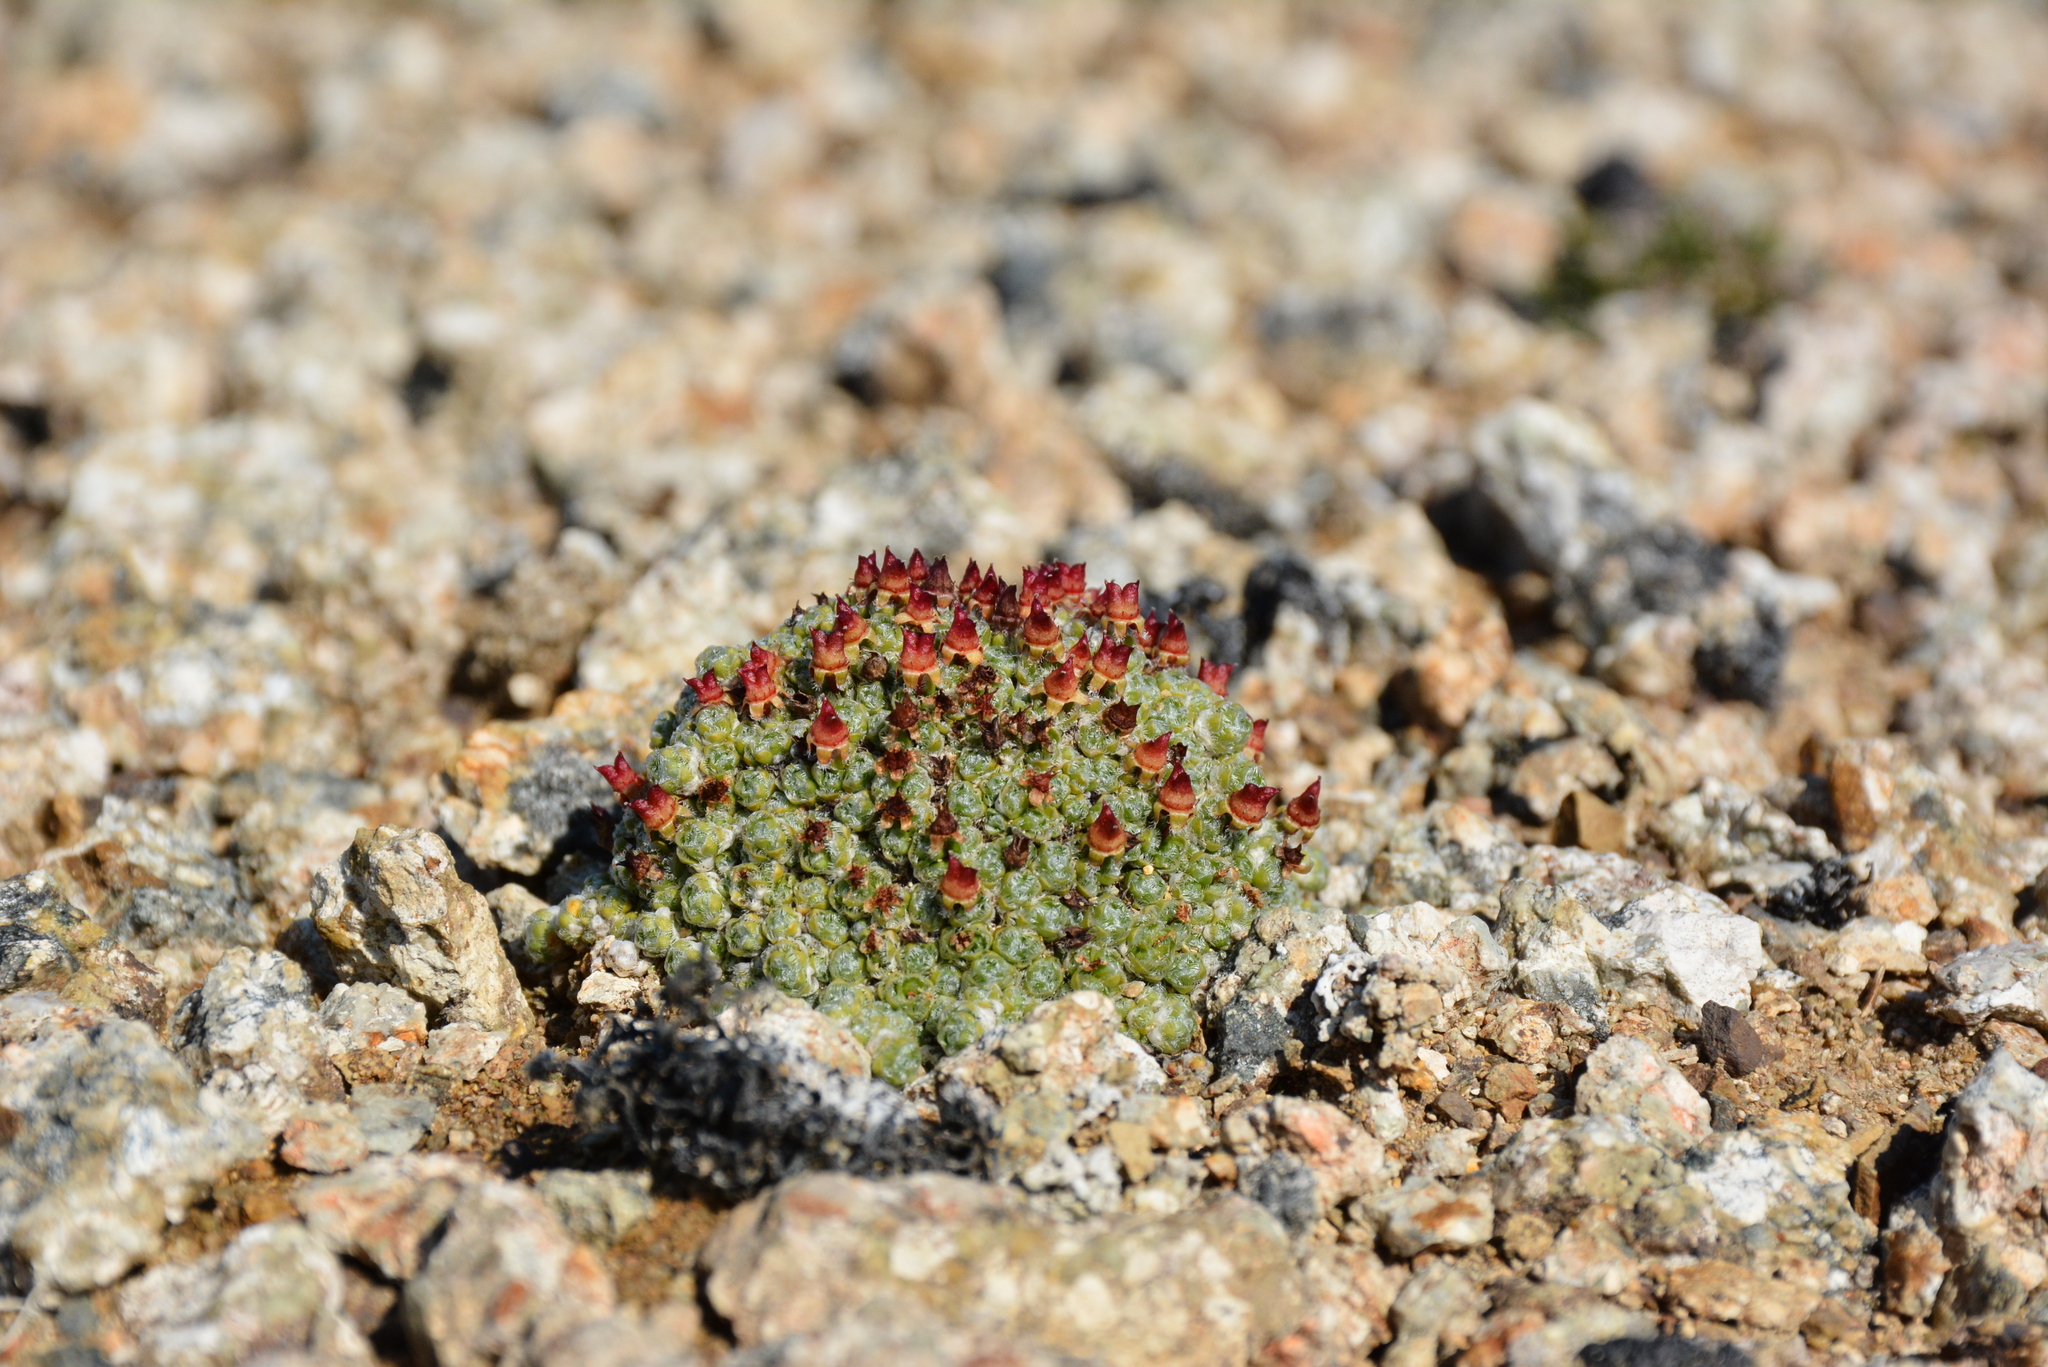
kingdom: Plantae
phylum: Tracheophyta
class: Magnoliopsida
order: Saxifragales
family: Saxifragaceae
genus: Saxifraga
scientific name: Saxifraga eschscholtzii
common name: Eschscholtz's saxifrage
